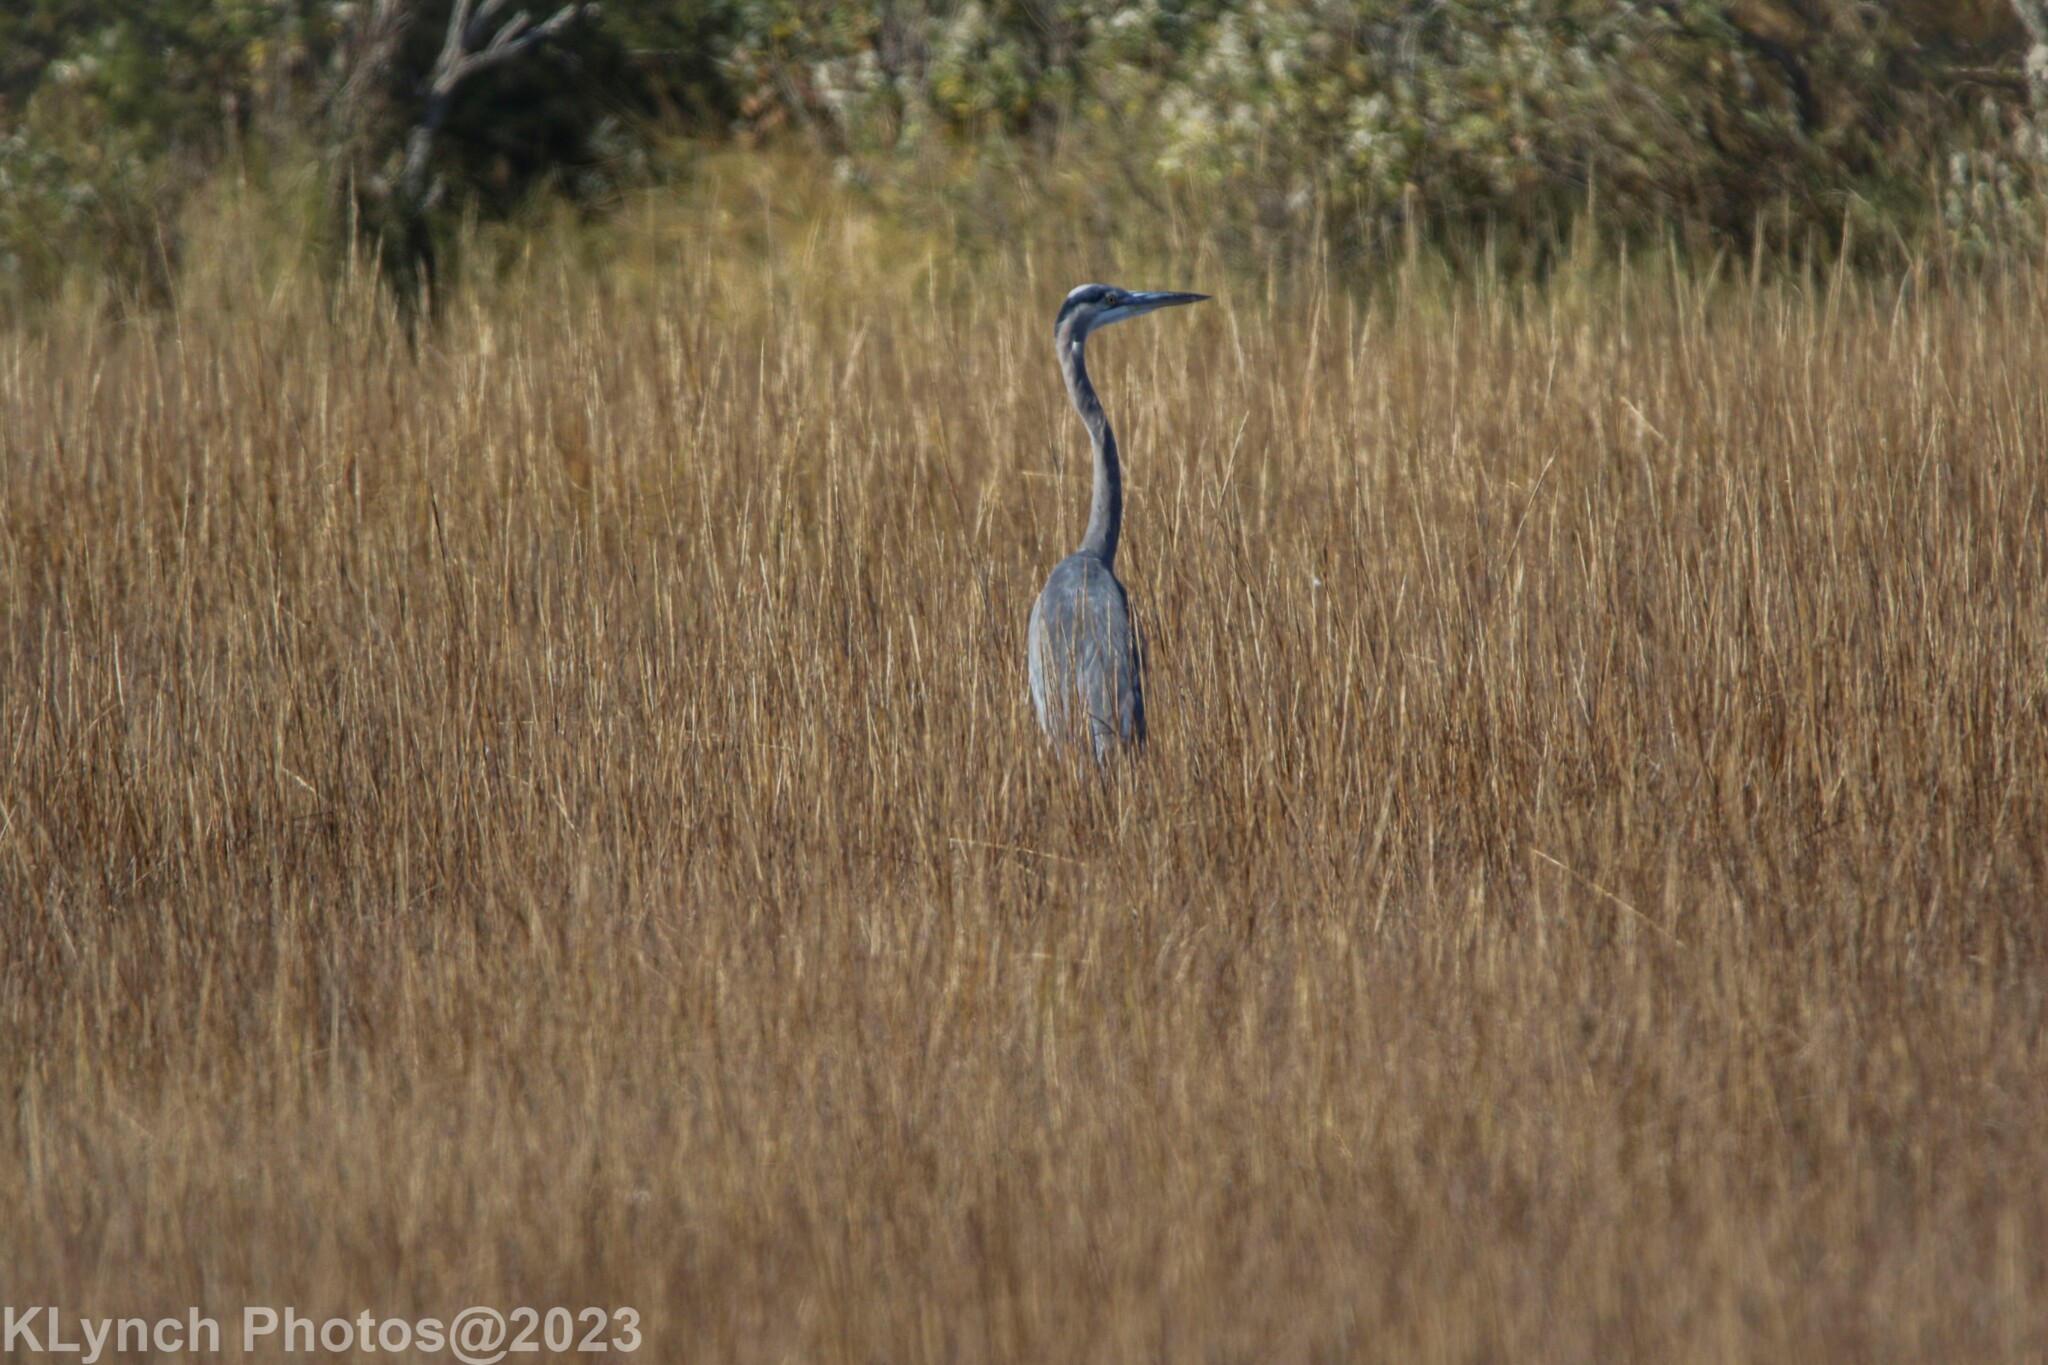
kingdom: Animalia
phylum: Chordata
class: Aves
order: Pelecaniformes
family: Ardeidae
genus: Ardea
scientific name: Ardea herodias
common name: Great blue heron
